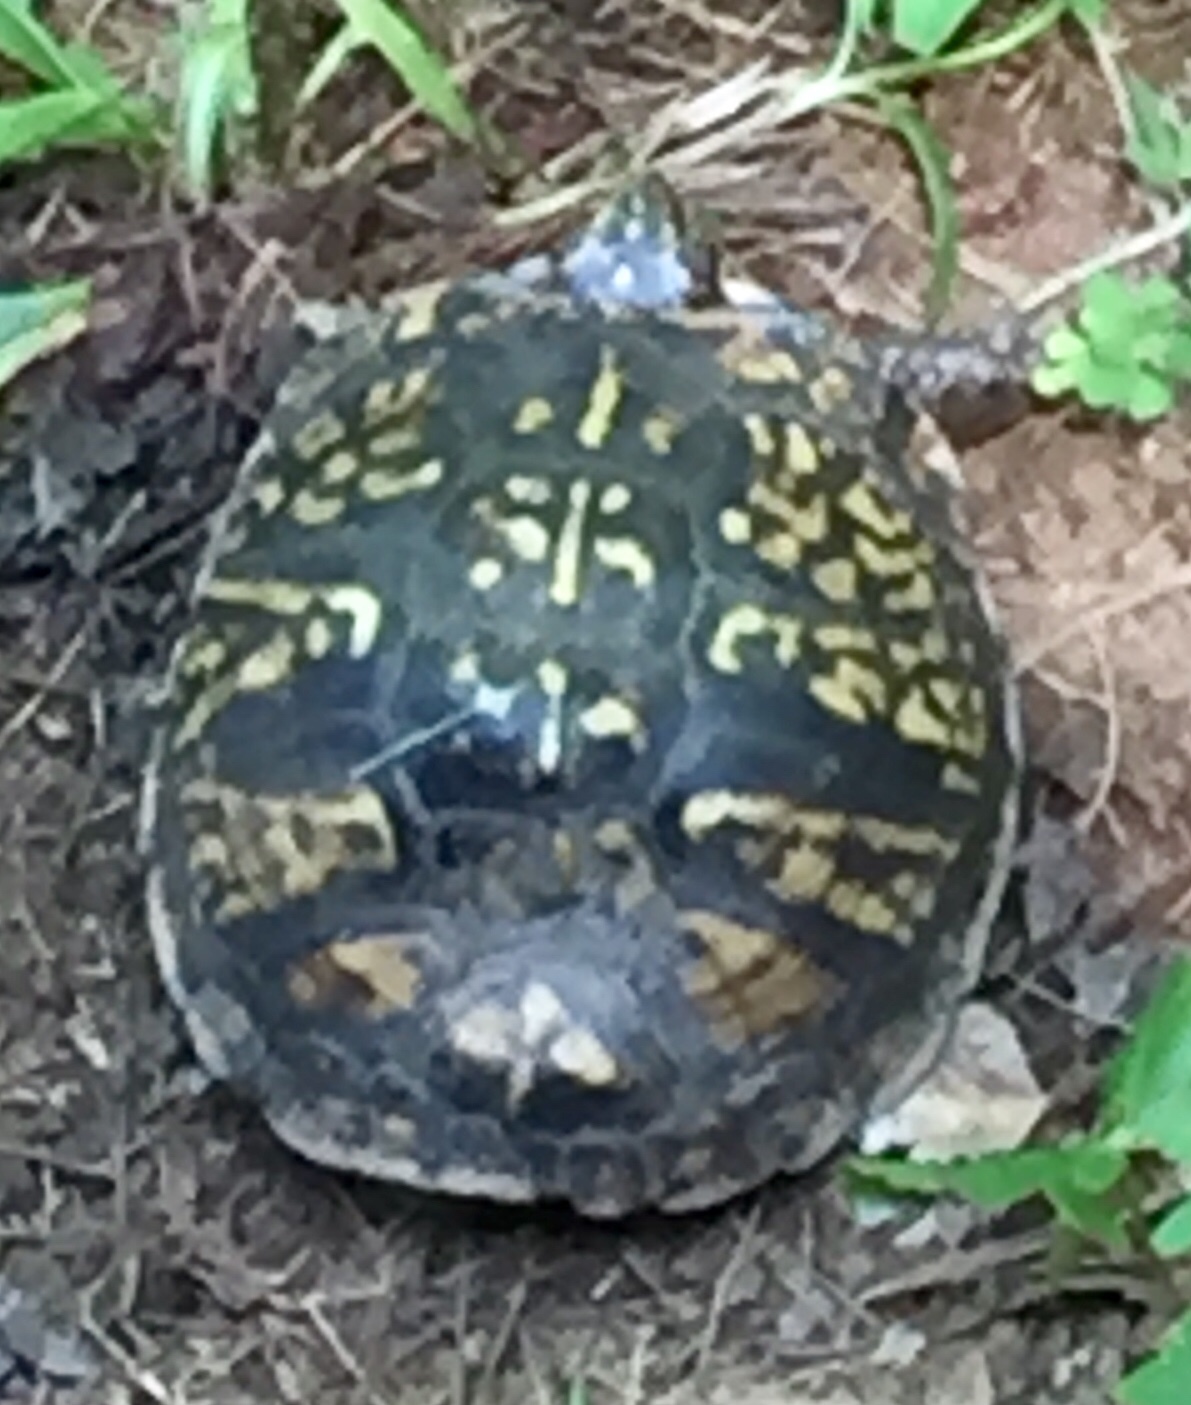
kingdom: Animalia
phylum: Chordata
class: Testudines
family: Emydidae
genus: Terrapene
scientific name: Terrapene carolina
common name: Common box turtle
